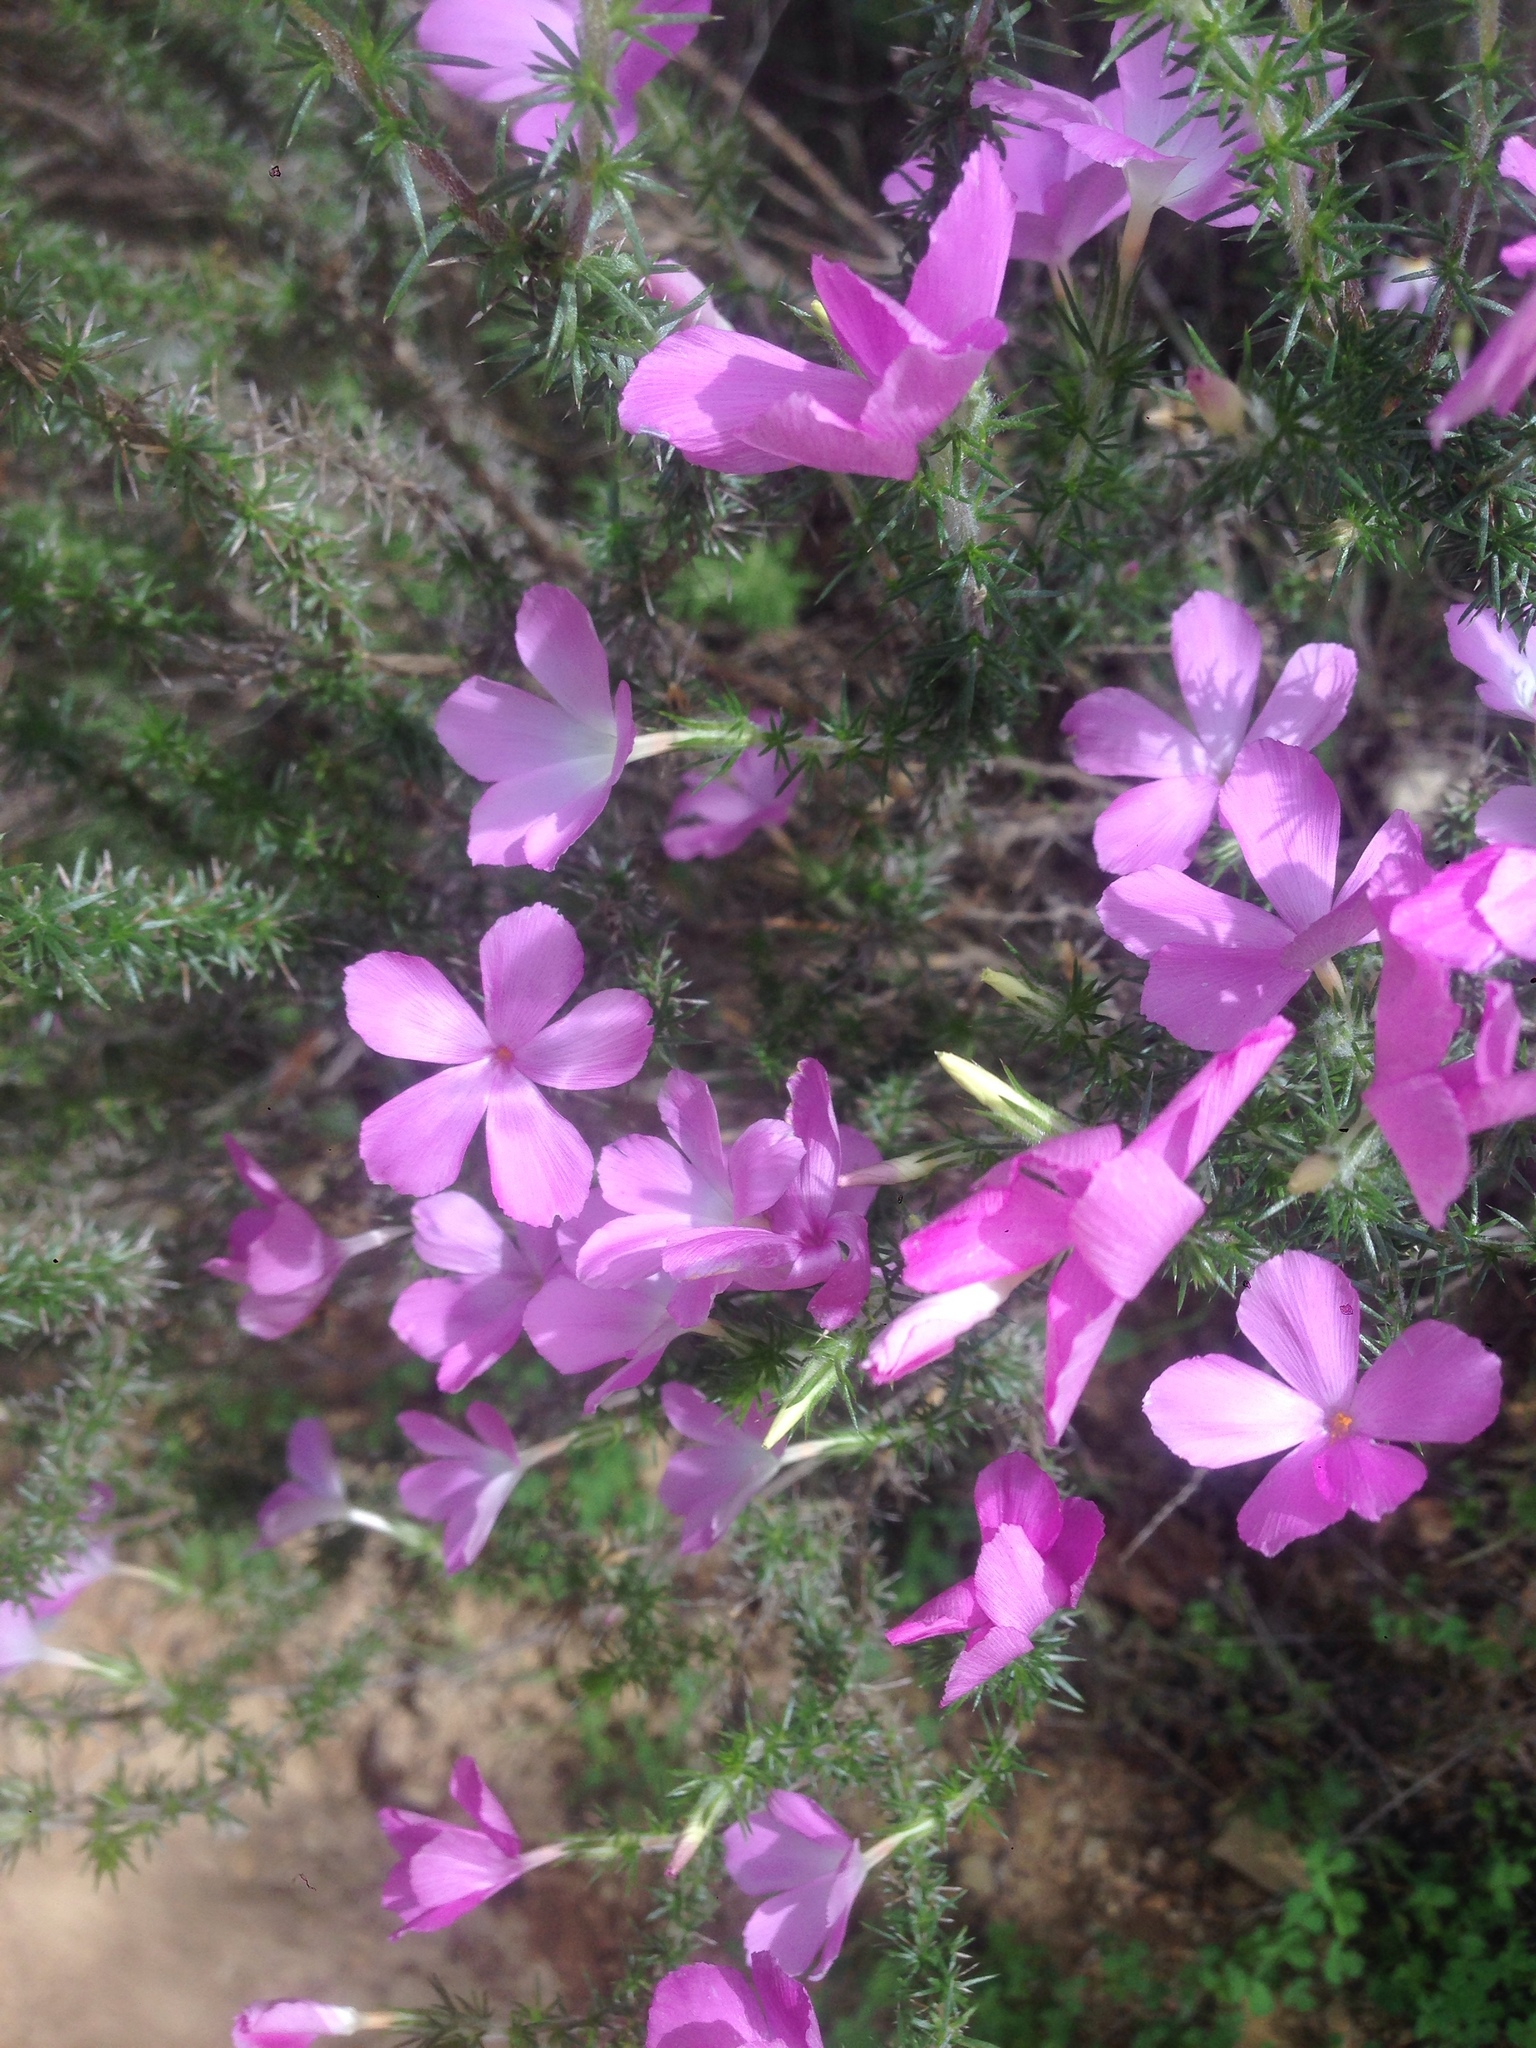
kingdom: Plantae
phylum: Tracheophyta
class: Magnoliopsida
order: Ericales
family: Polemoniaceae
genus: Linanthus
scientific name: Linanthus californicus
